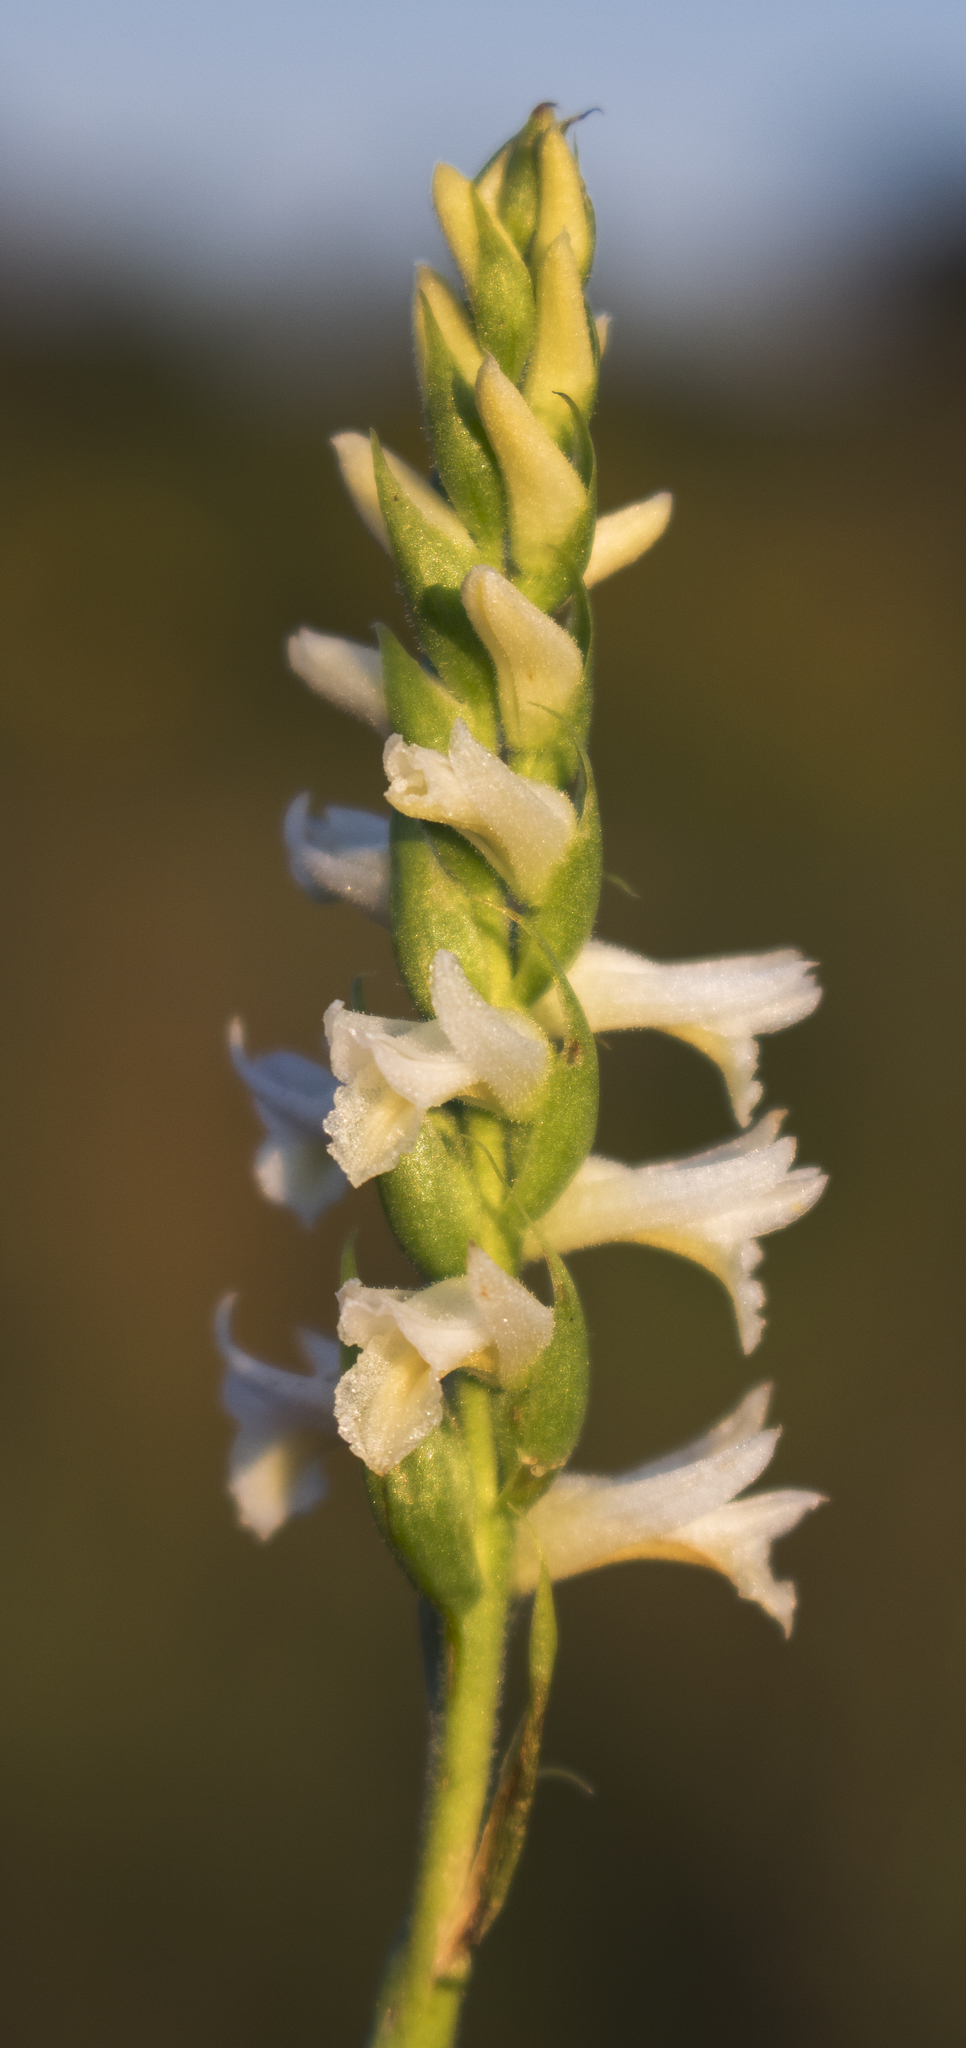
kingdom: Plantae
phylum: Tracheophyta
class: Liliopsida
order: Asparagales
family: Orchidaceae
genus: Spiranthes
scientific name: Spiranthes magnicamporum
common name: Great plains ladies'-tresses
